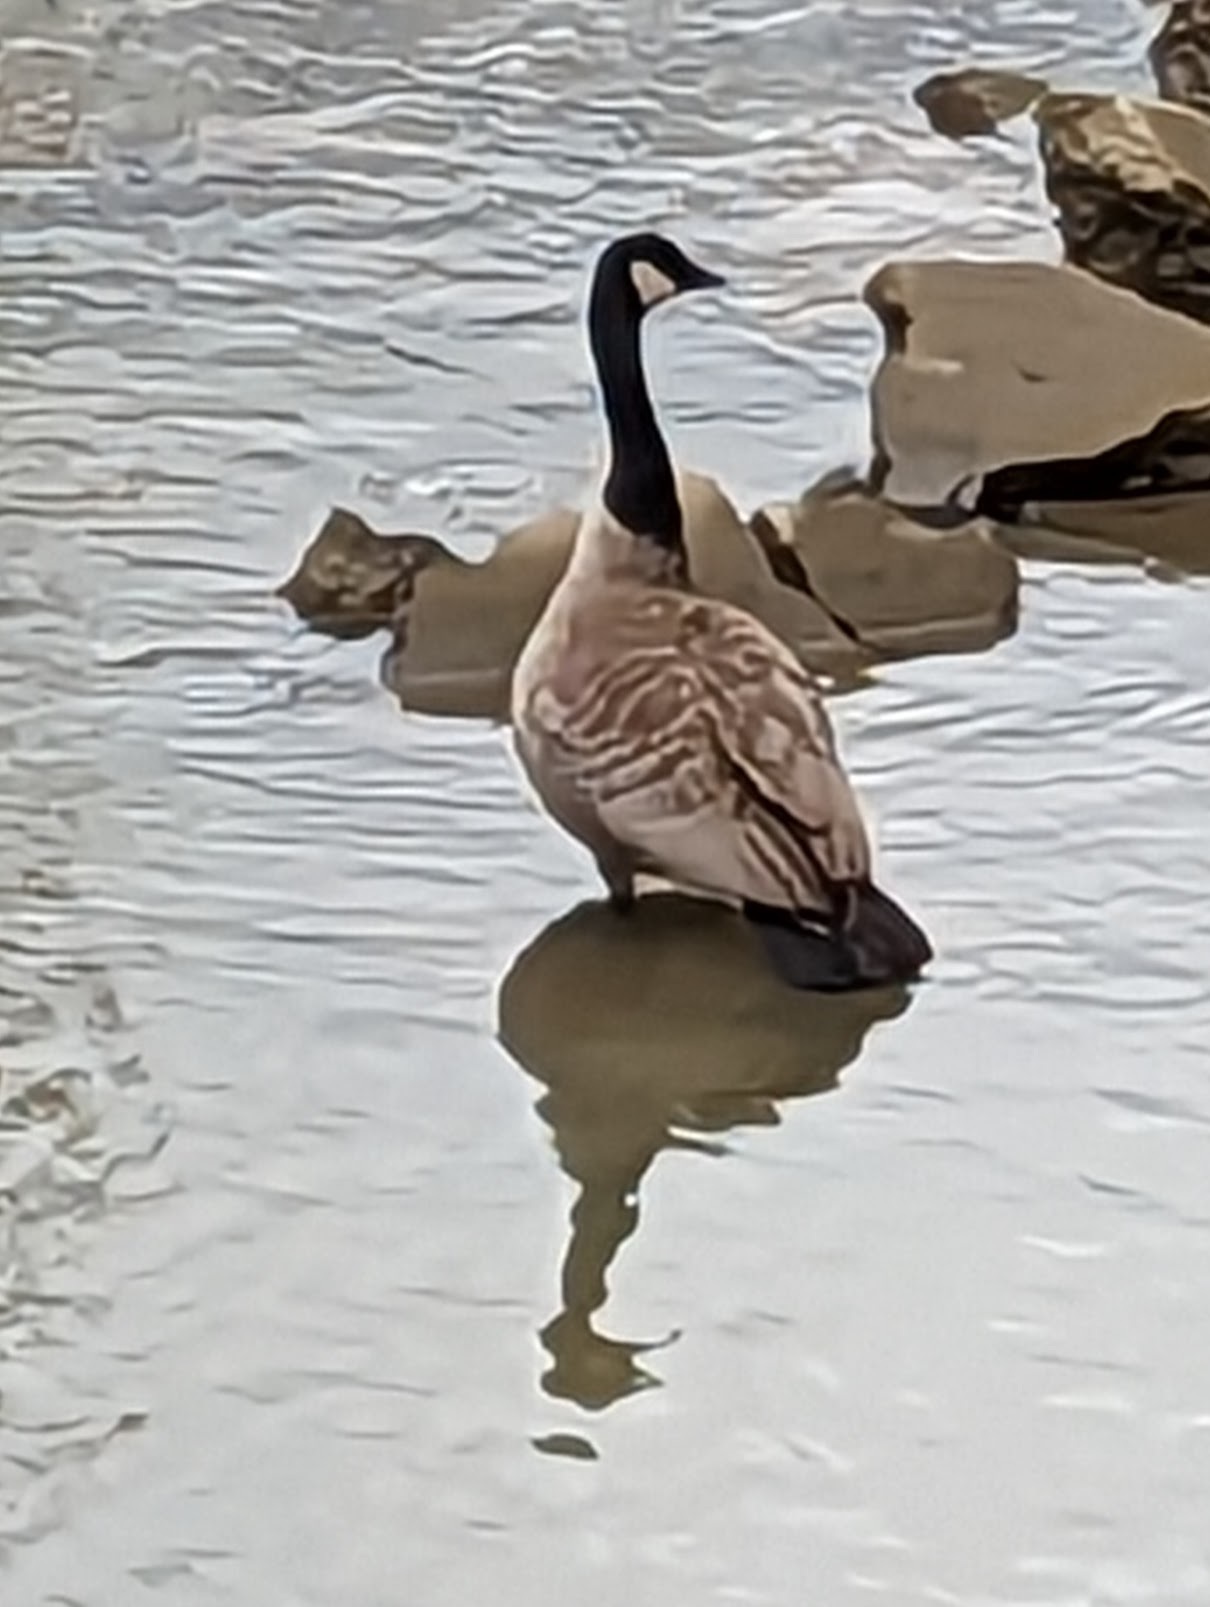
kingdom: Animalia
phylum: Chordata
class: Aves
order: Anseriformes
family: Anatidae
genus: Branta
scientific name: Branta canadensis
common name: Canada goose
